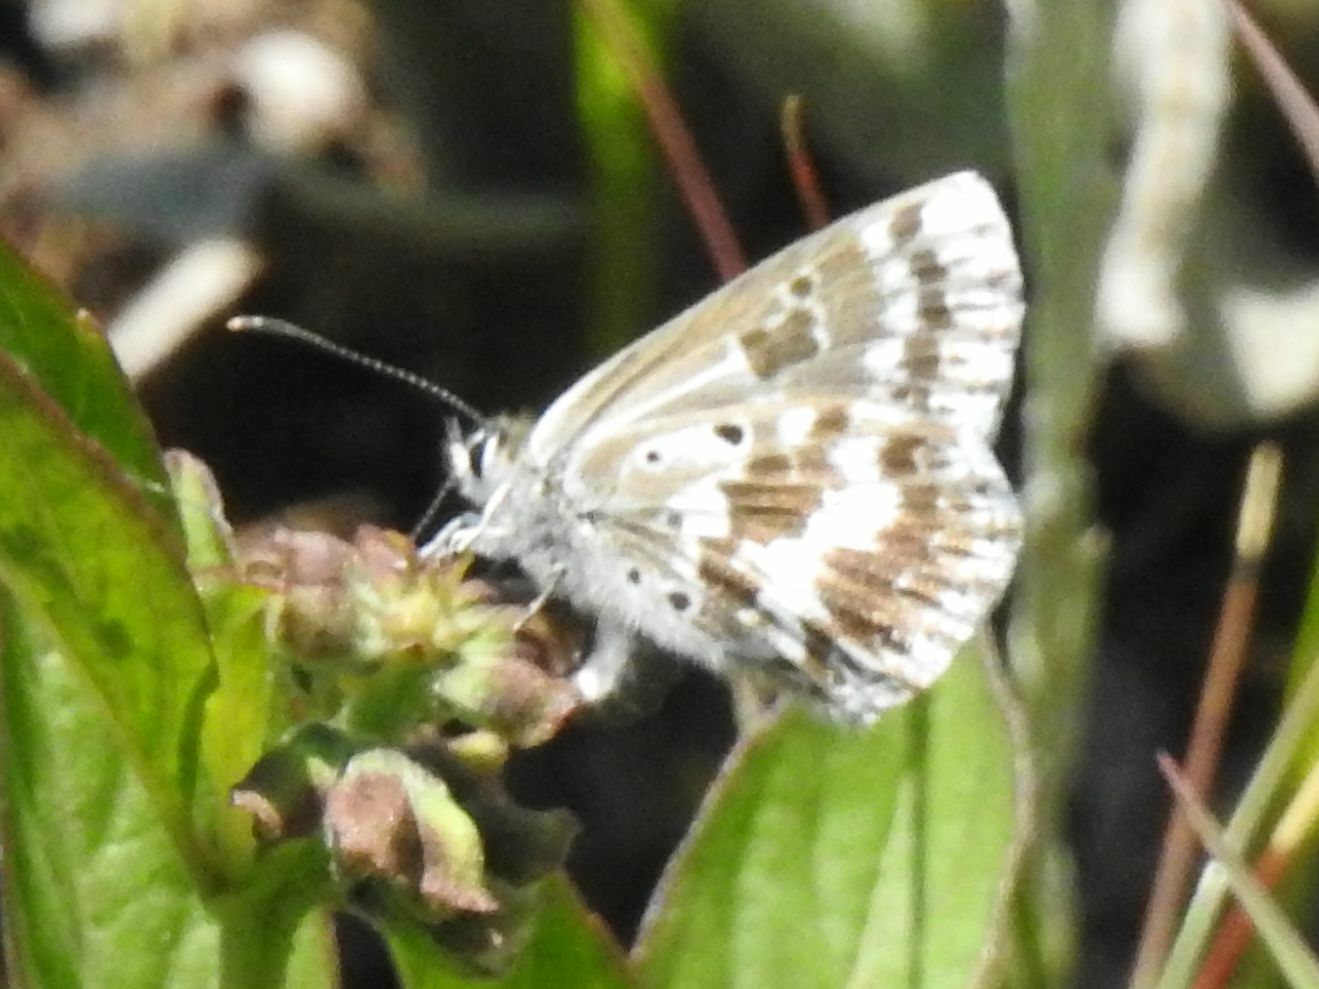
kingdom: Animalia
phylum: Arthropoda
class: Insecta
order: Lepidoptera
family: Lycaenidae
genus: Lepidochrysops
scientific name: Lepidochrysops variabilis
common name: Variable blue
